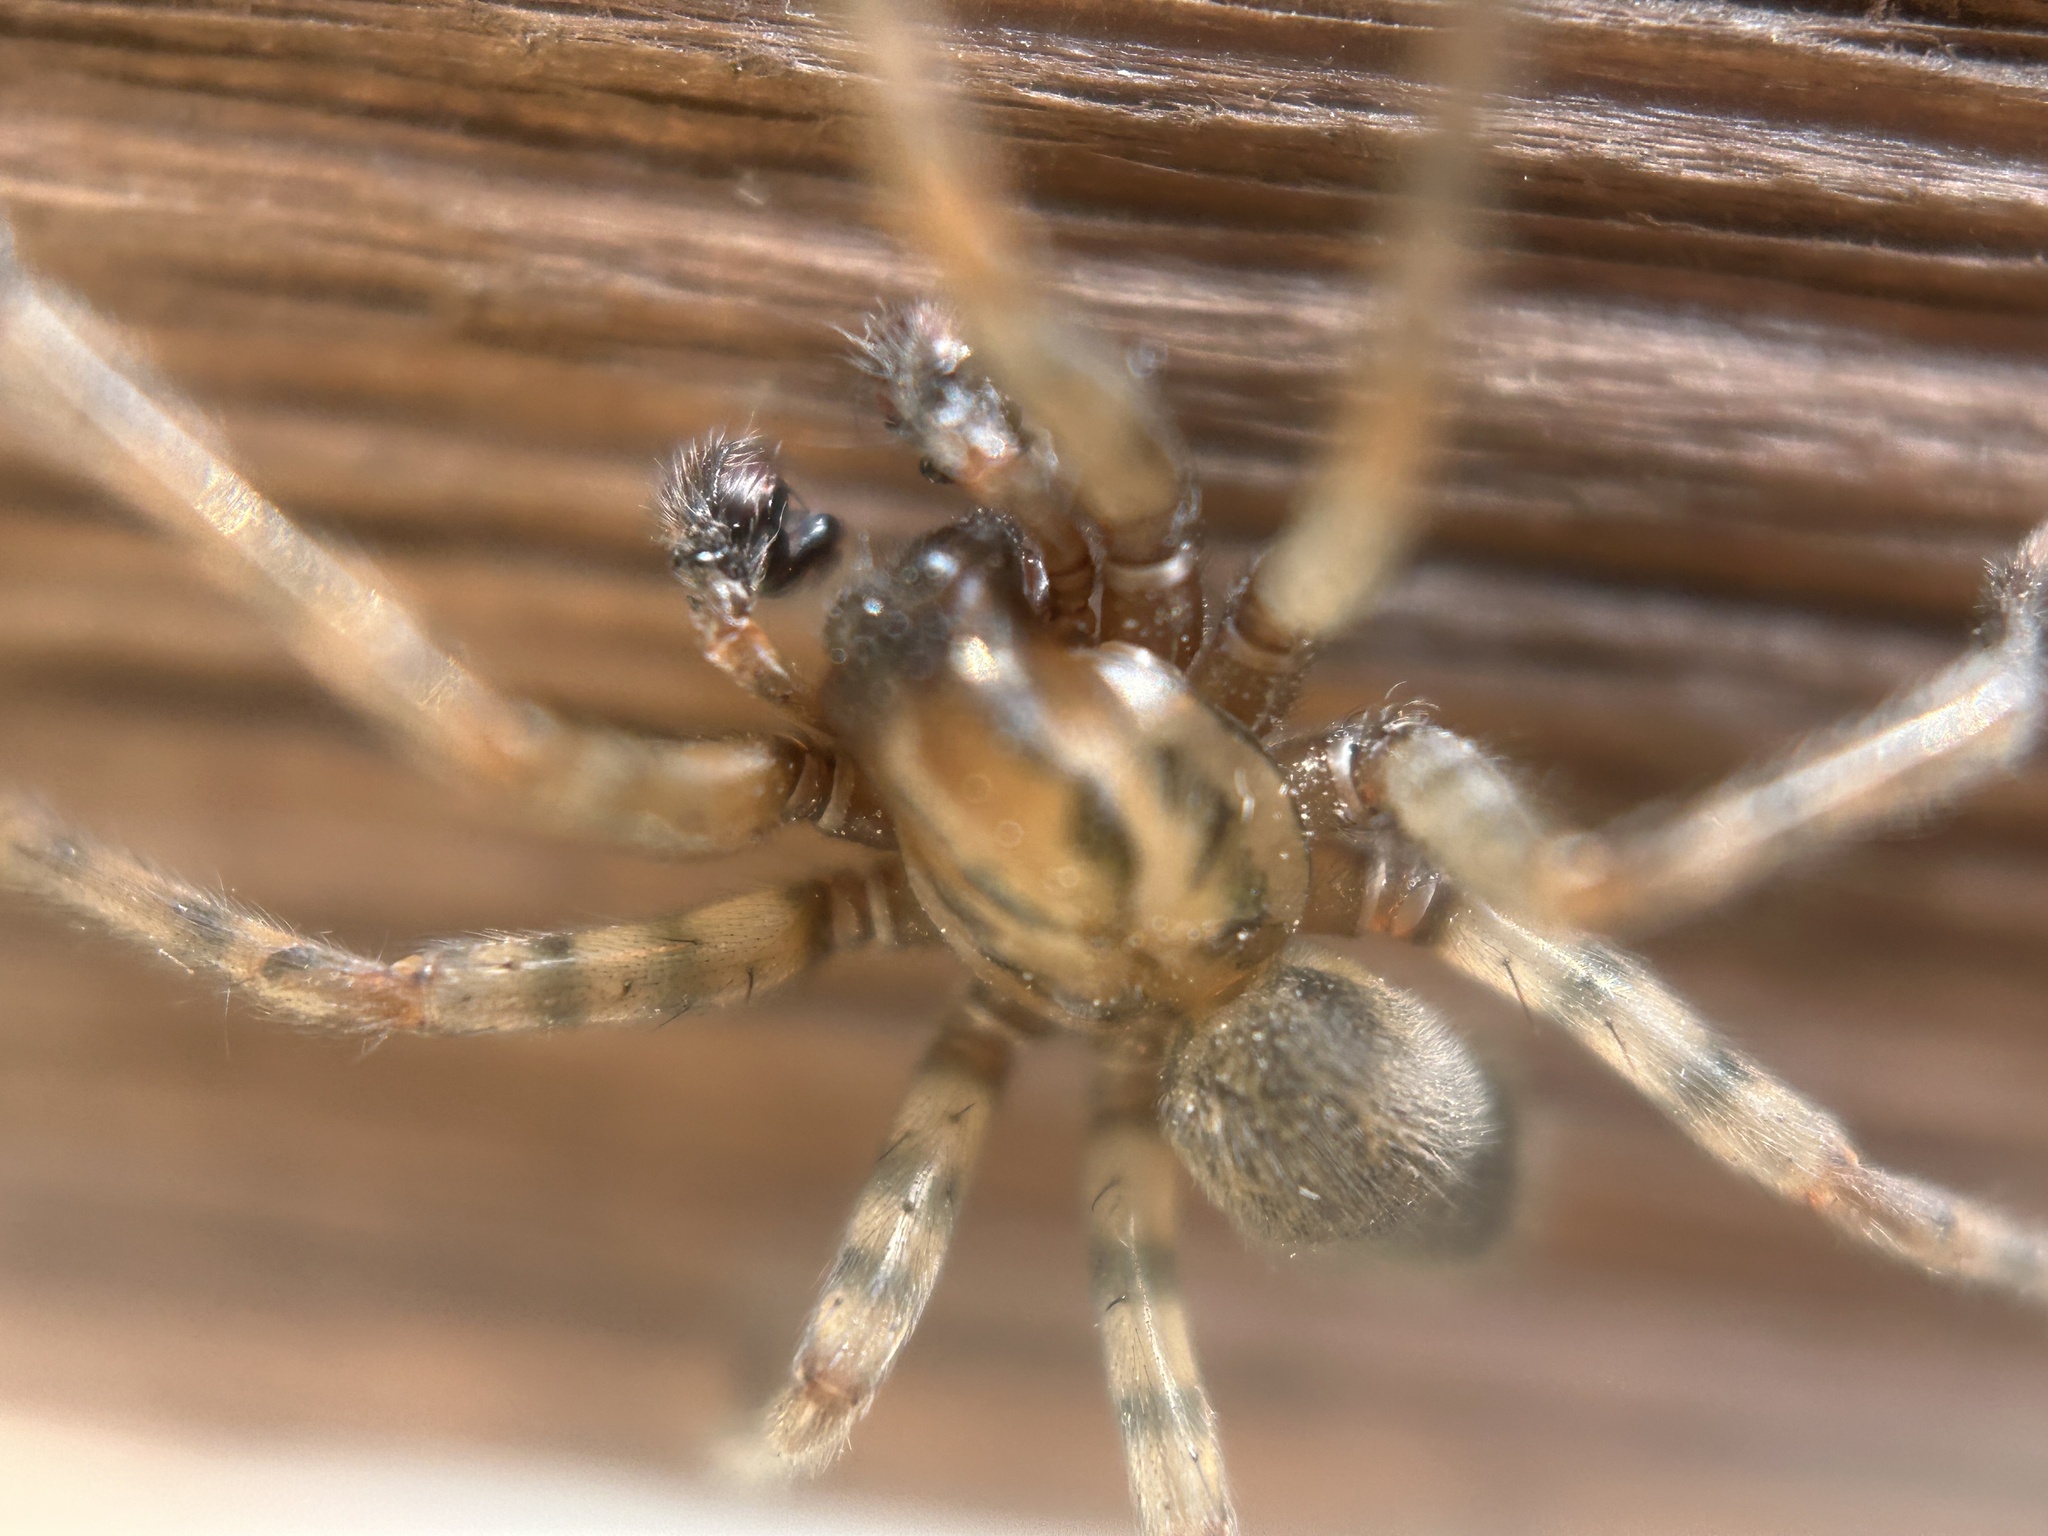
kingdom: Animalia
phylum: Arthropoda
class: Arachnida
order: Araneae
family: Agelenidae
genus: Coras
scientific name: Coras
